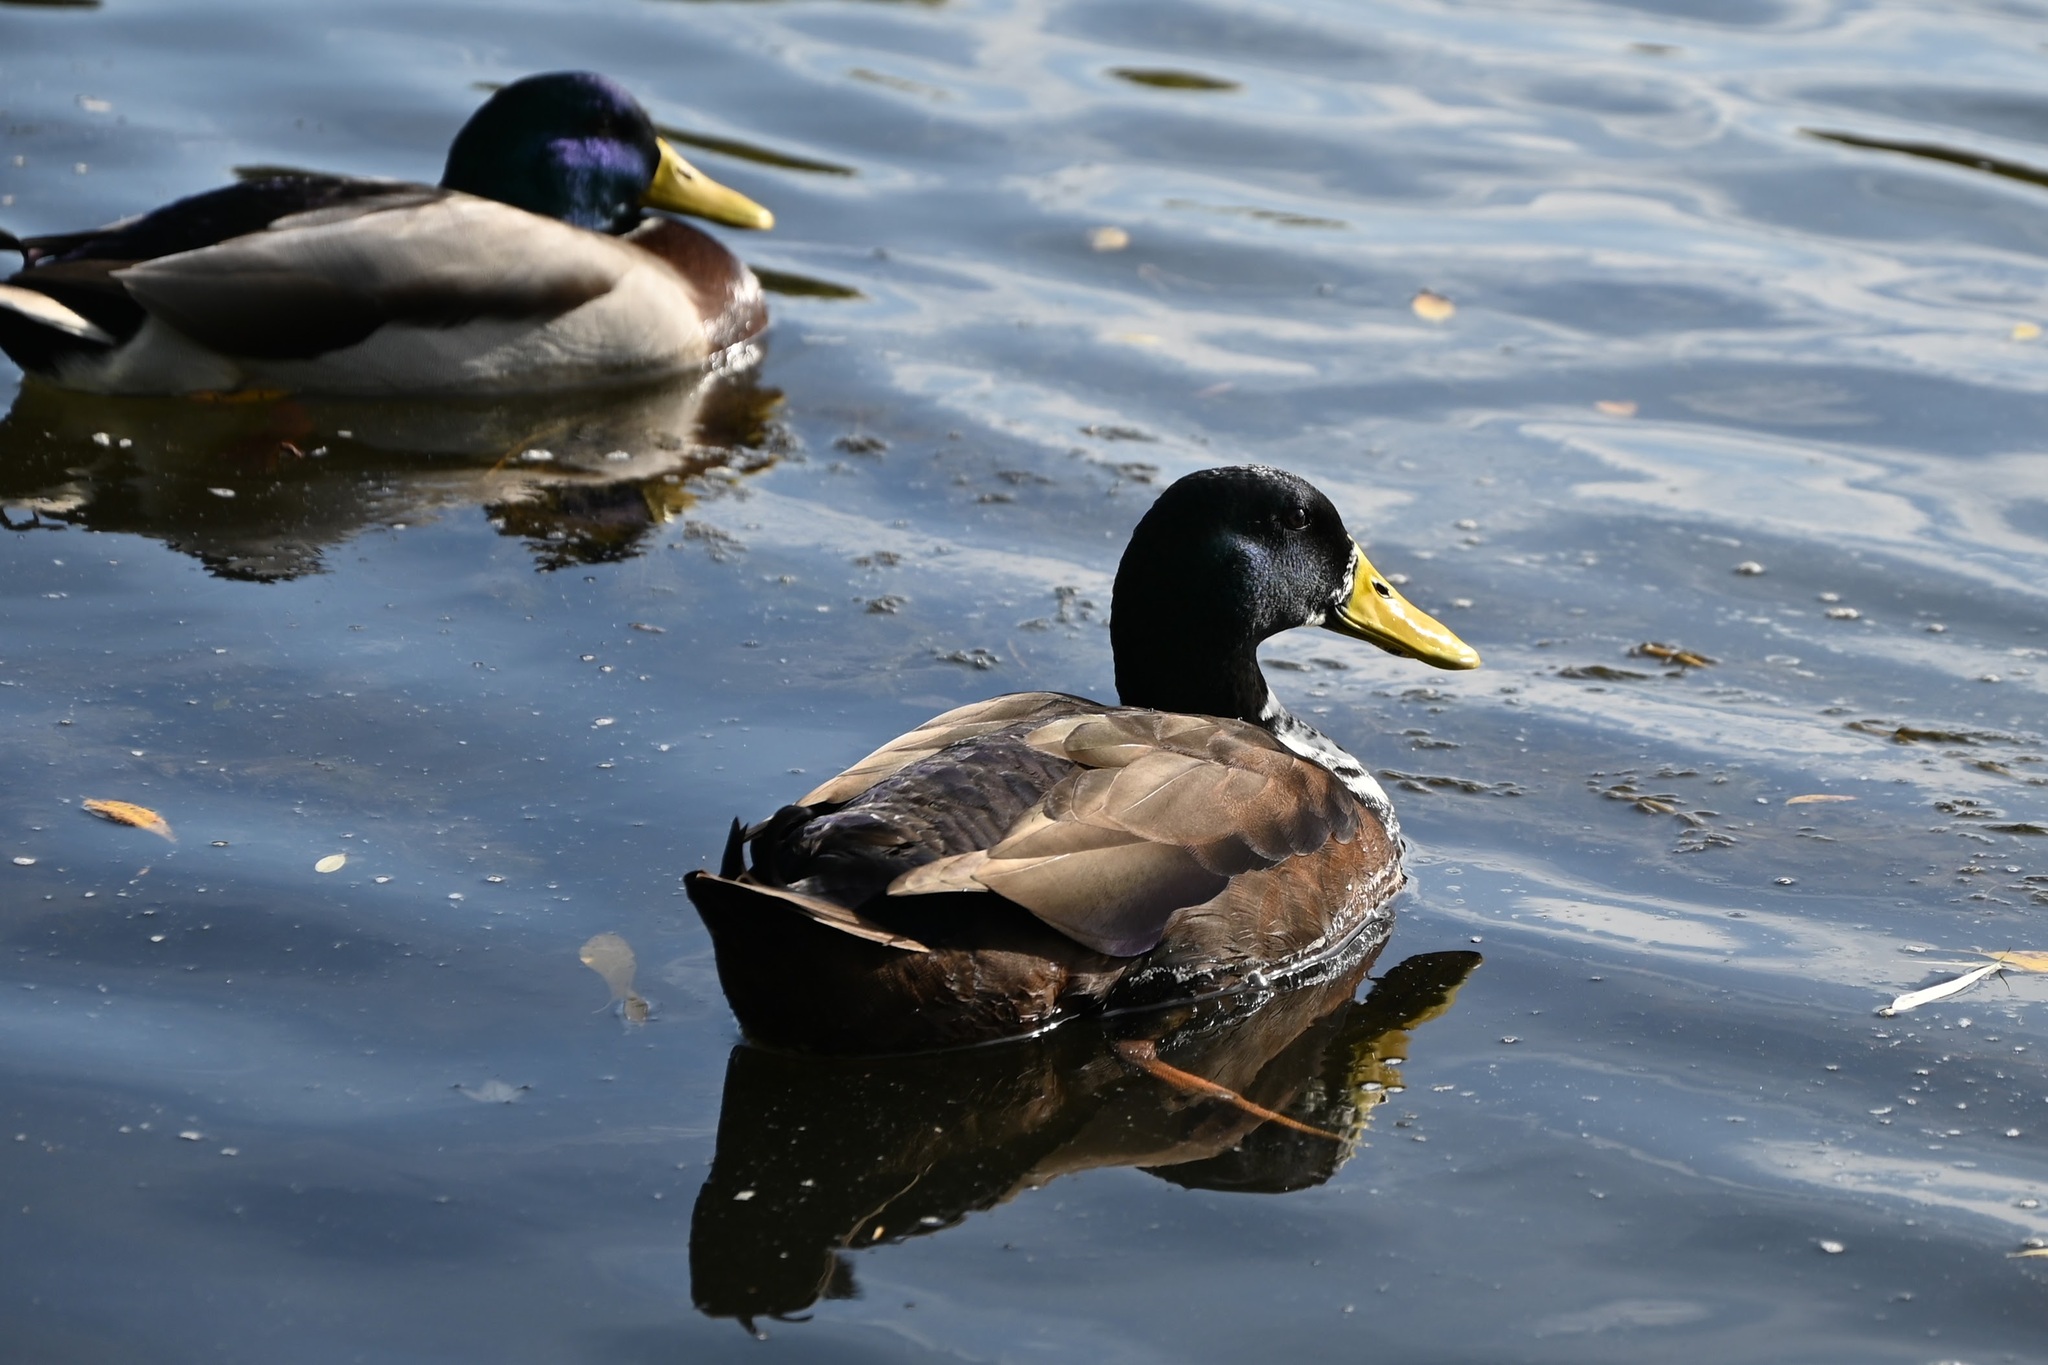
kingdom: Animalia
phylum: Chordata
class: Aves
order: Anseriformes
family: Anatidae
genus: Anas
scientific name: Anas platyrhynchos
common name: Mallard
